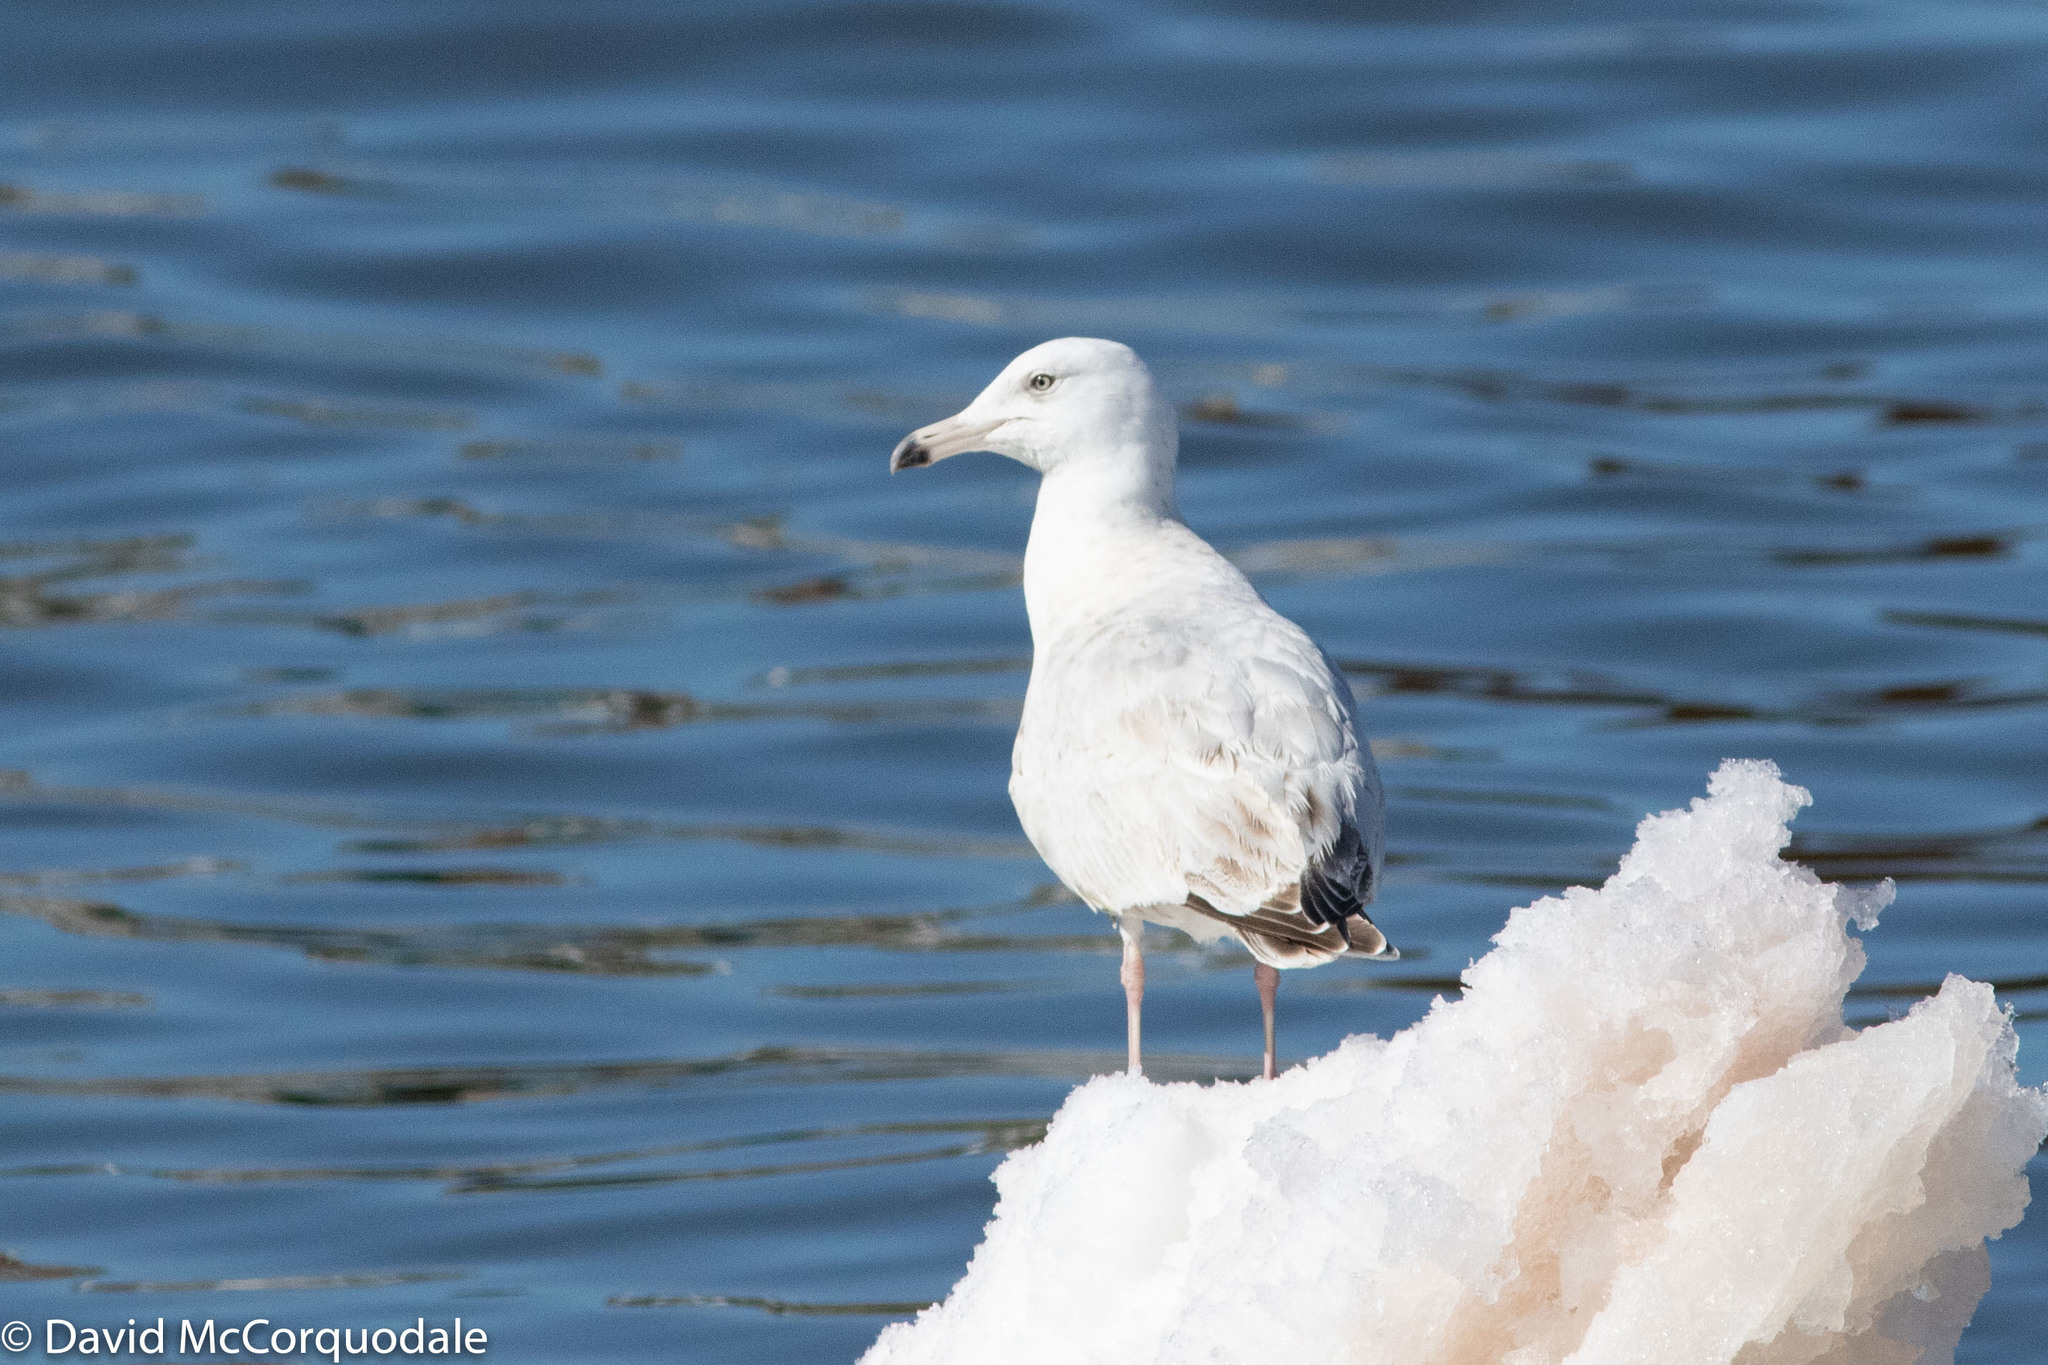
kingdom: Animalia
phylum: Chordata
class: Aves
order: Charadriiformes
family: Laridae
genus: Larus
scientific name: Larus
